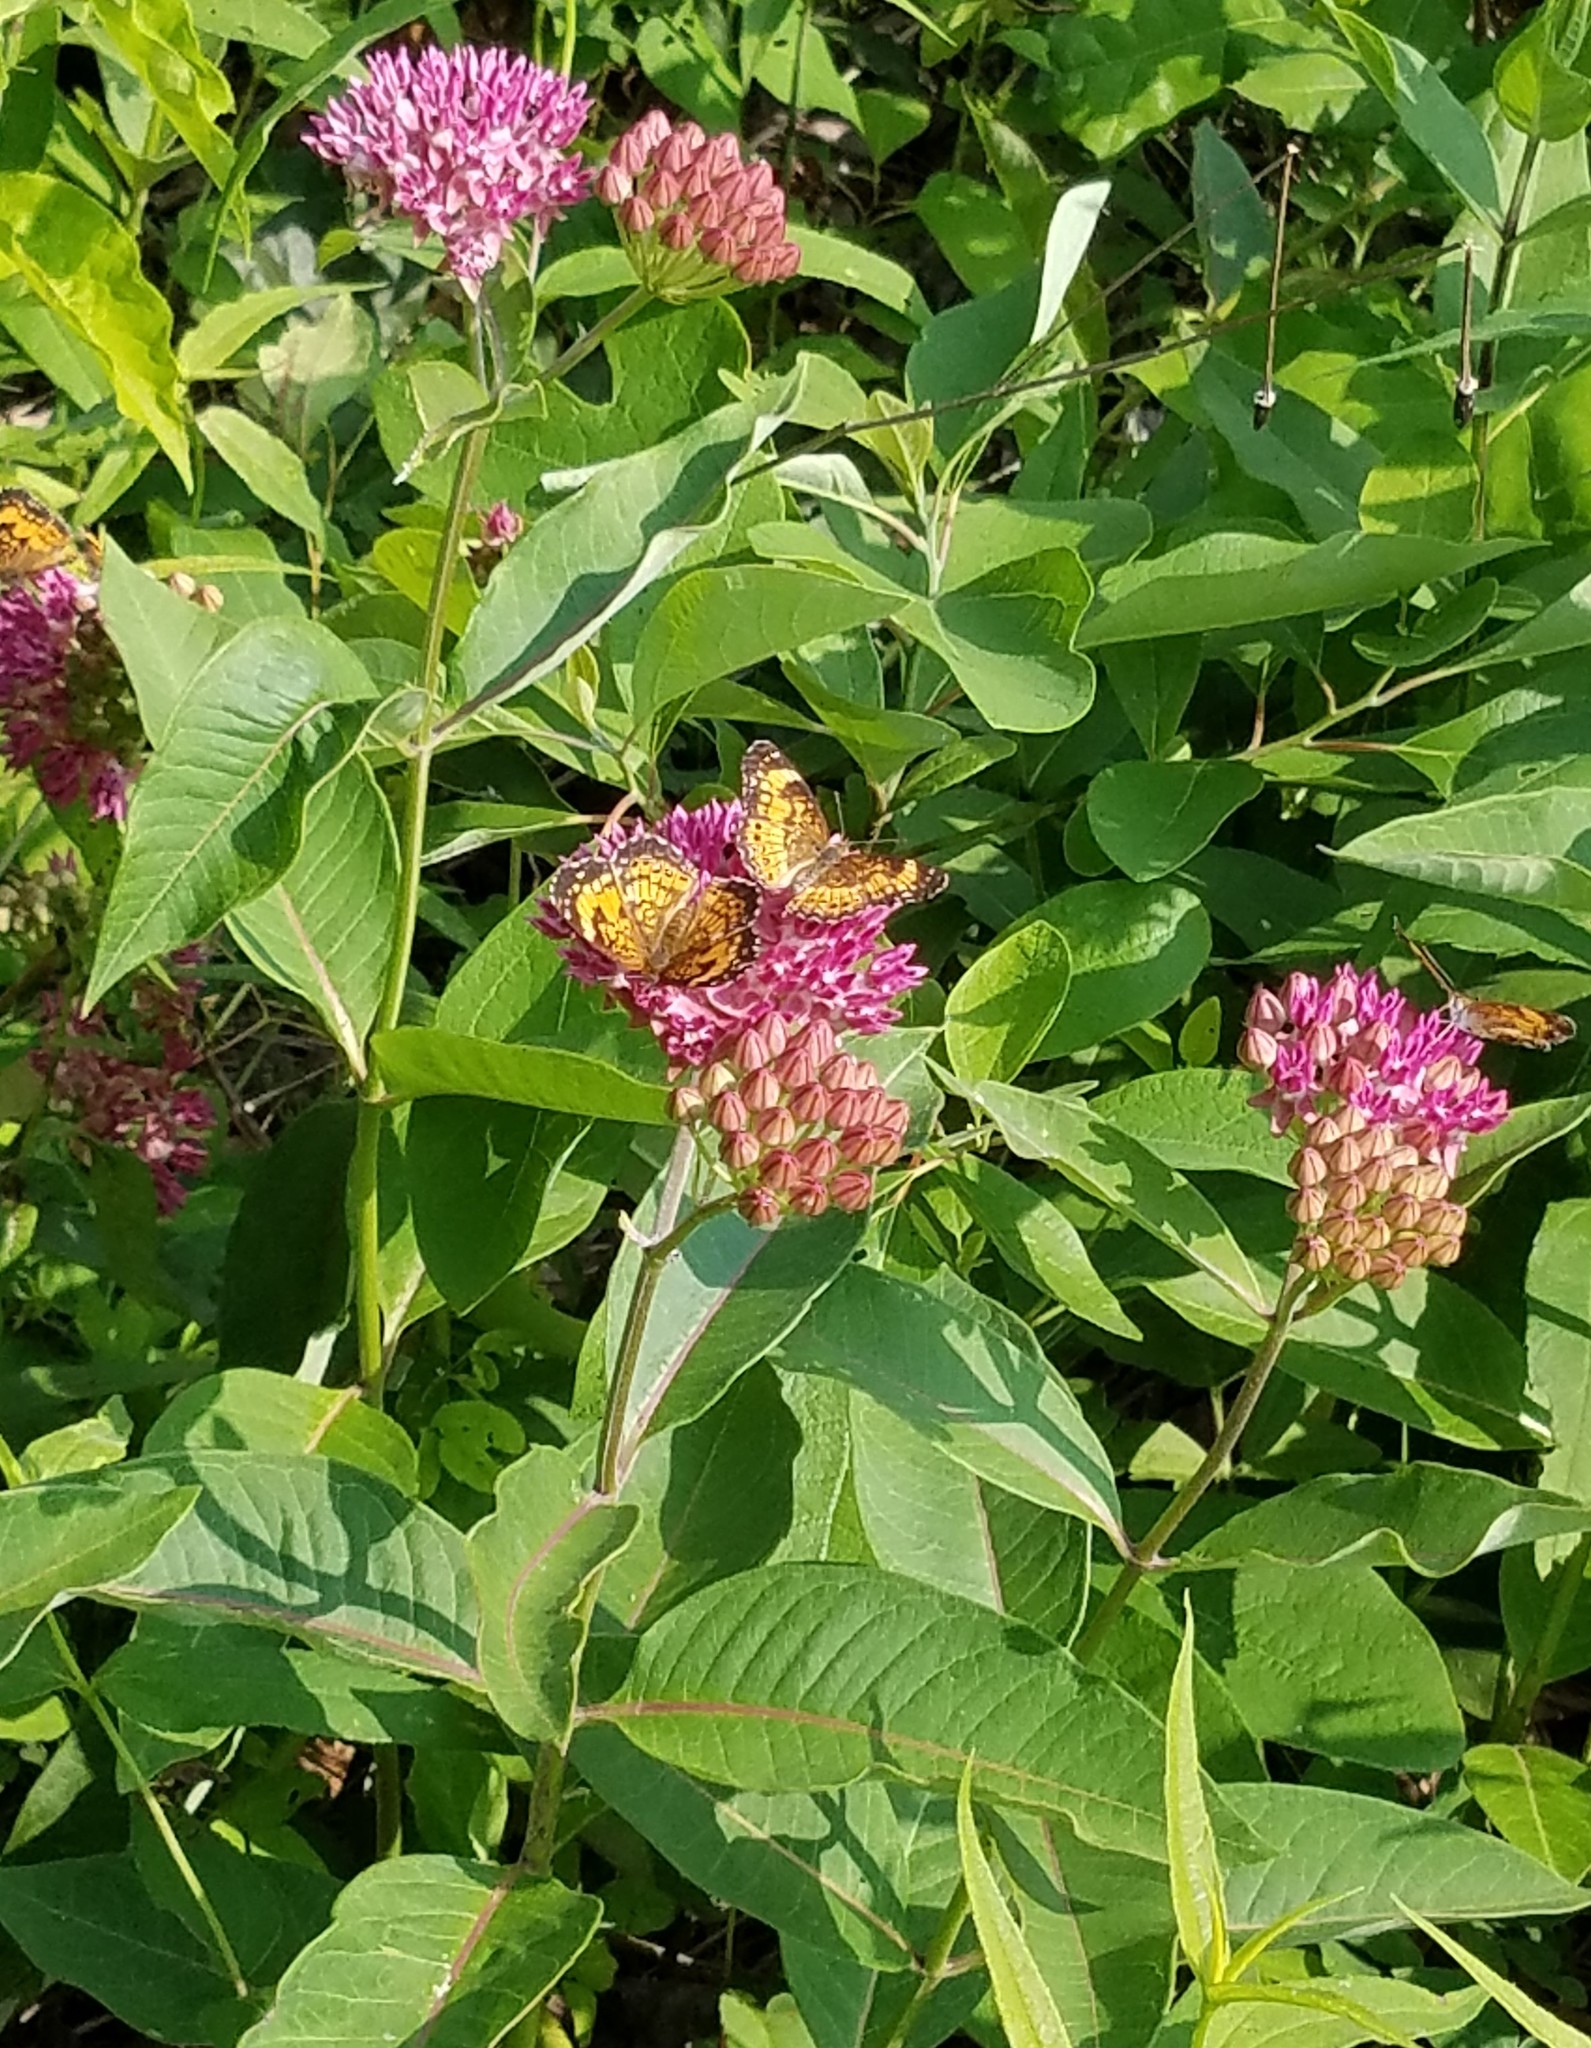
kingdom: Animalia
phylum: Arthropoda
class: Insecta
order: Lepidoptera
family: Nymphalidae
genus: Chlosyne
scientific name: Chlosyne nycteis
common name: Silvery checkerspot
